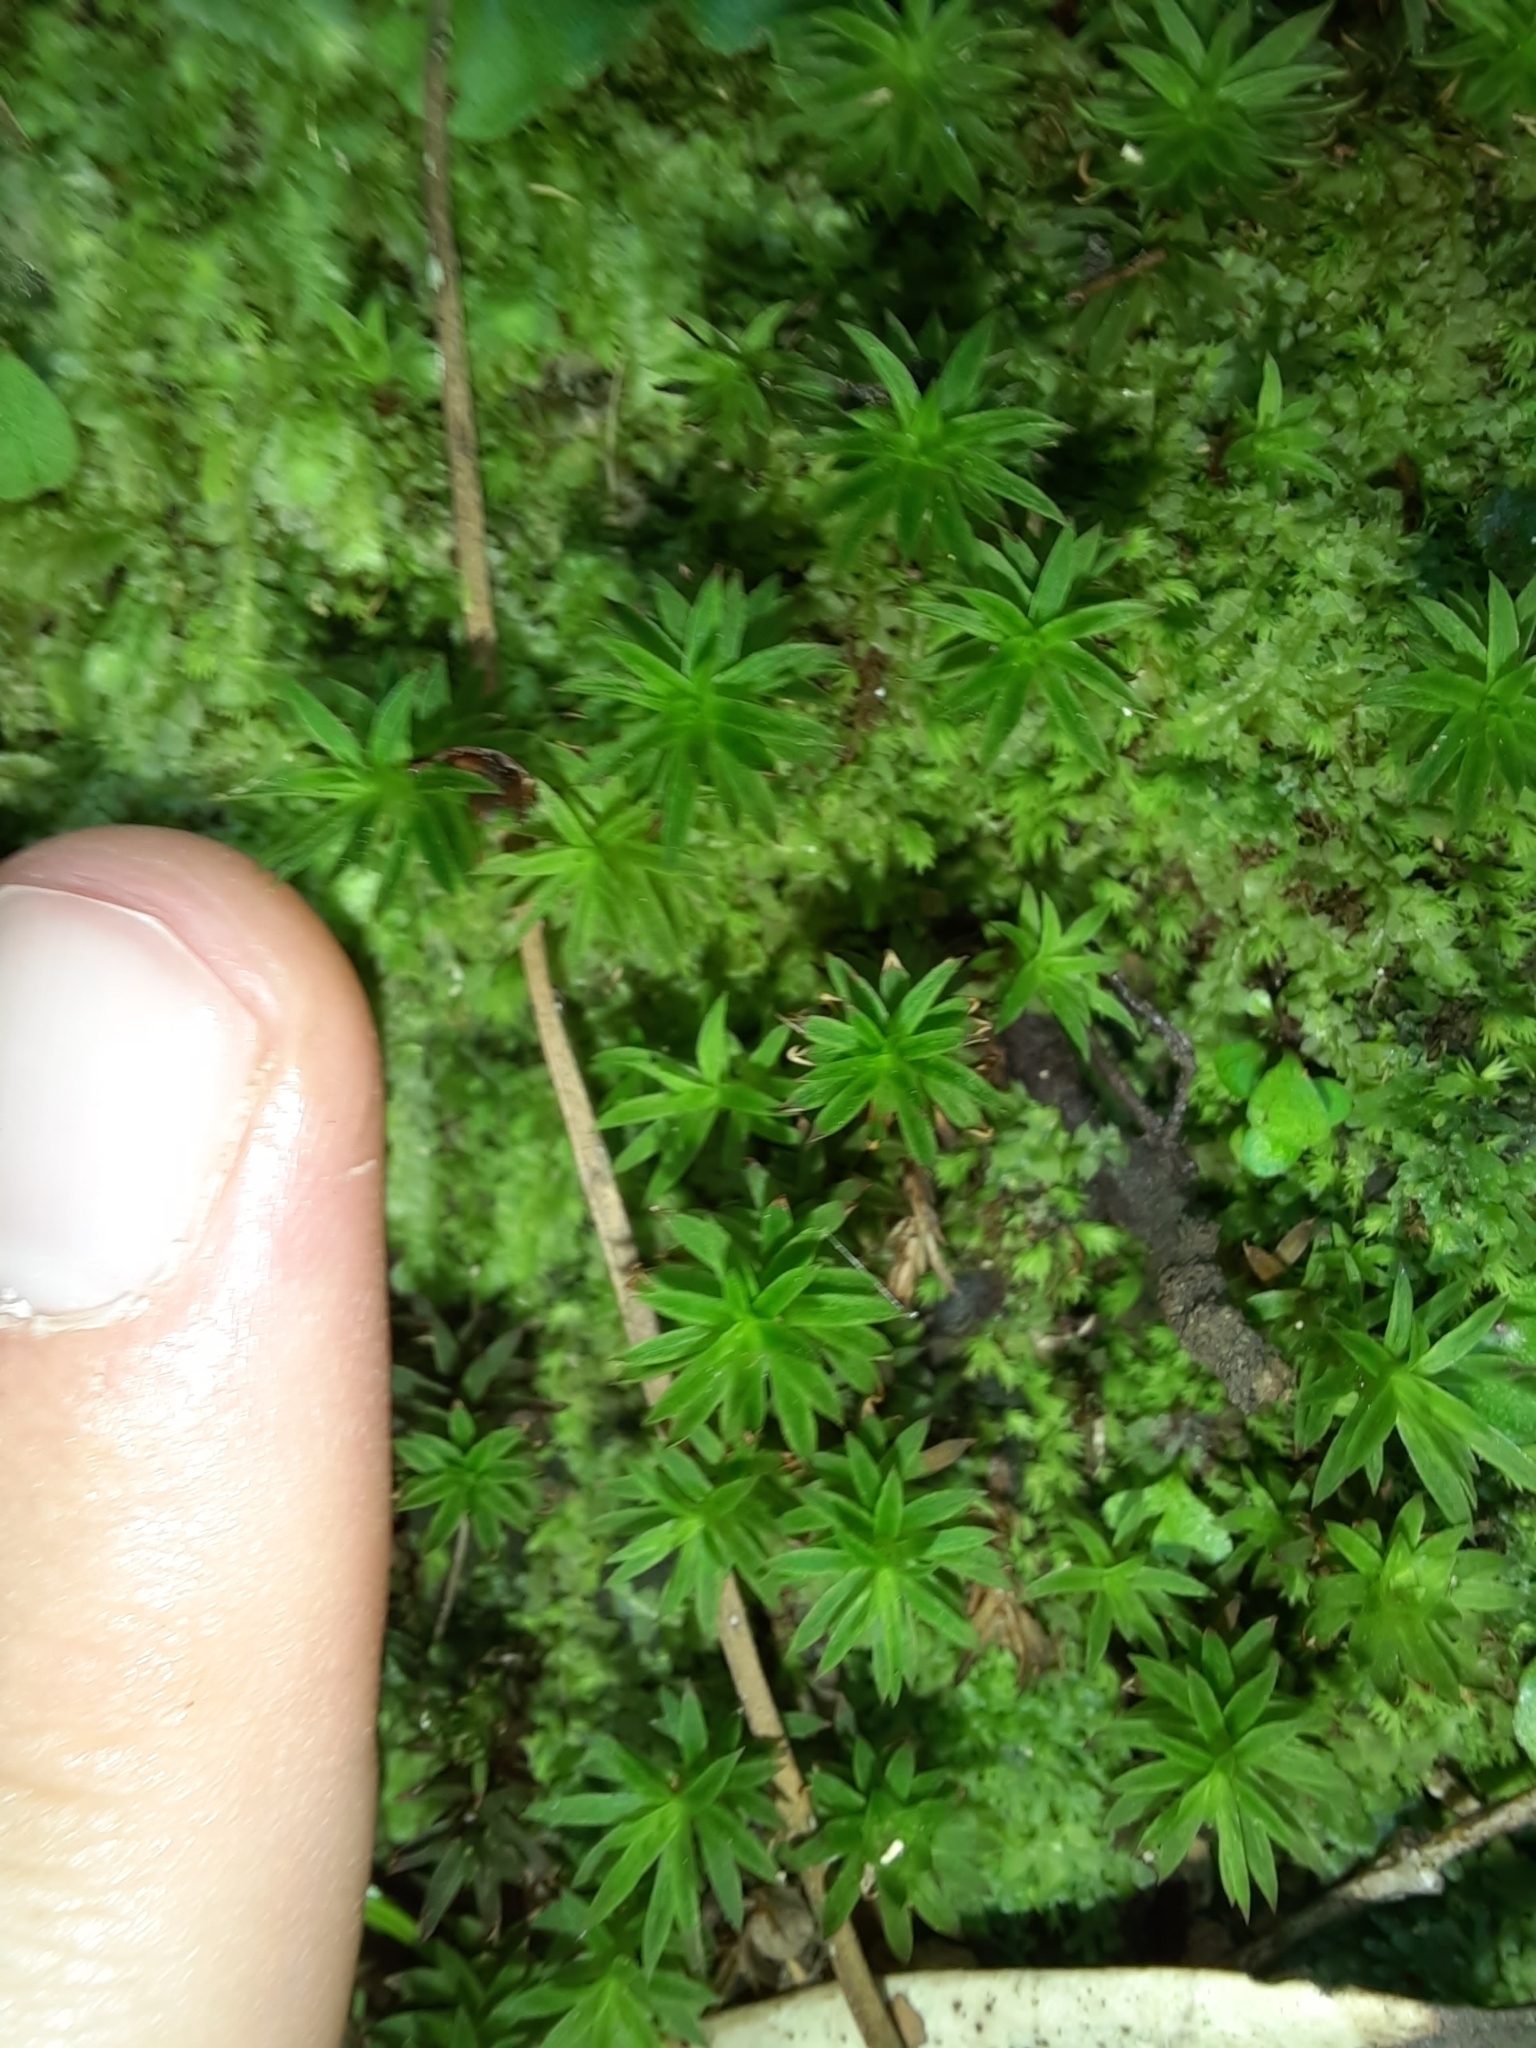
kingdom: Plantae
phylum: Bryophyta
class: Polytrichopsida
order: Polytrichales
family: Polytrichaceae
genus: Pogonatum
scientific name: Pogonatum subulatum
